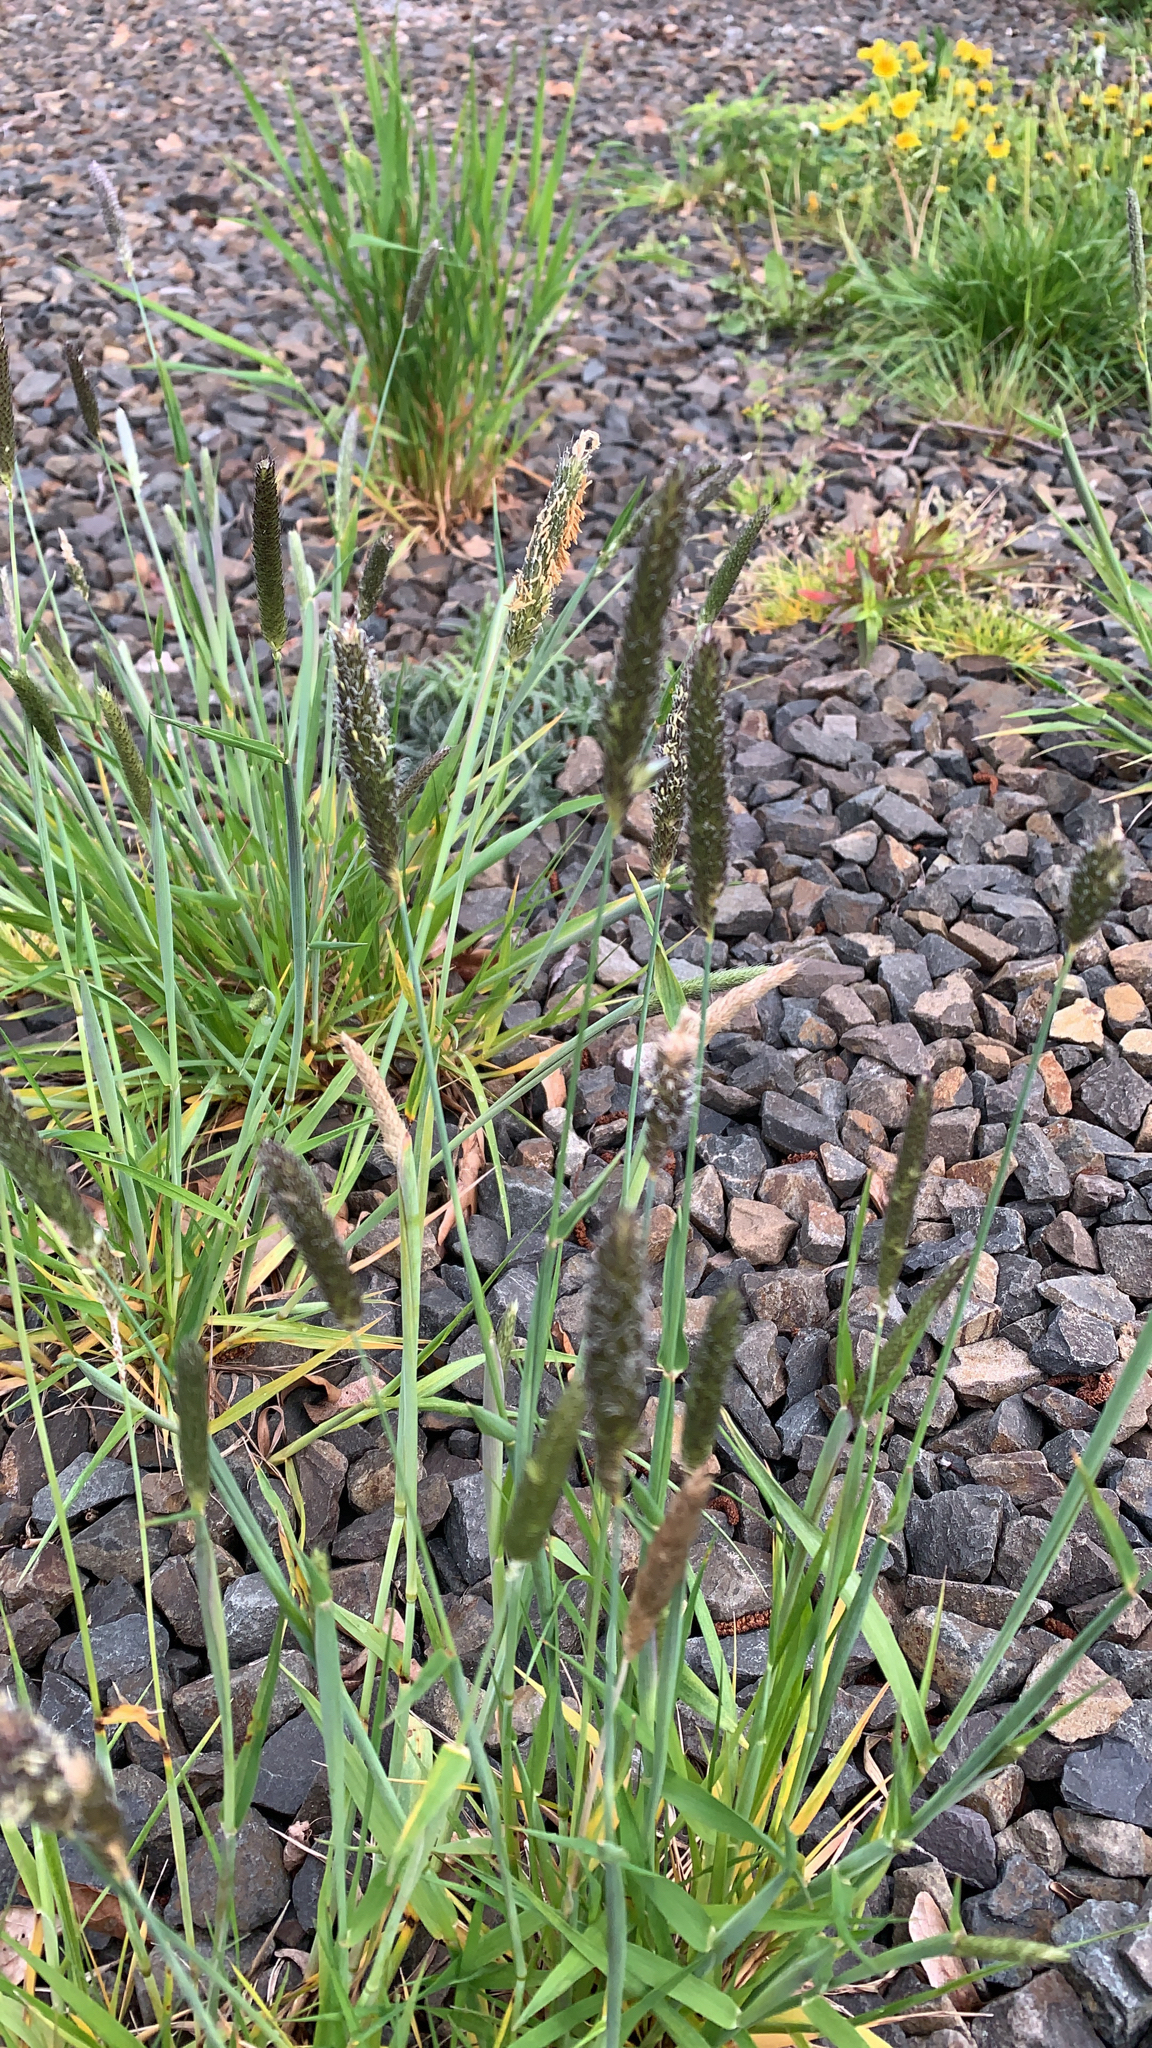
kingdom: Plantae
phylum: Tracheophyta
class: Liliopsida
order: Poales
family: Poaceae
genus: Alopecurus
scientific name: Alopecurus pratensis
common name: Meadow foxtail
